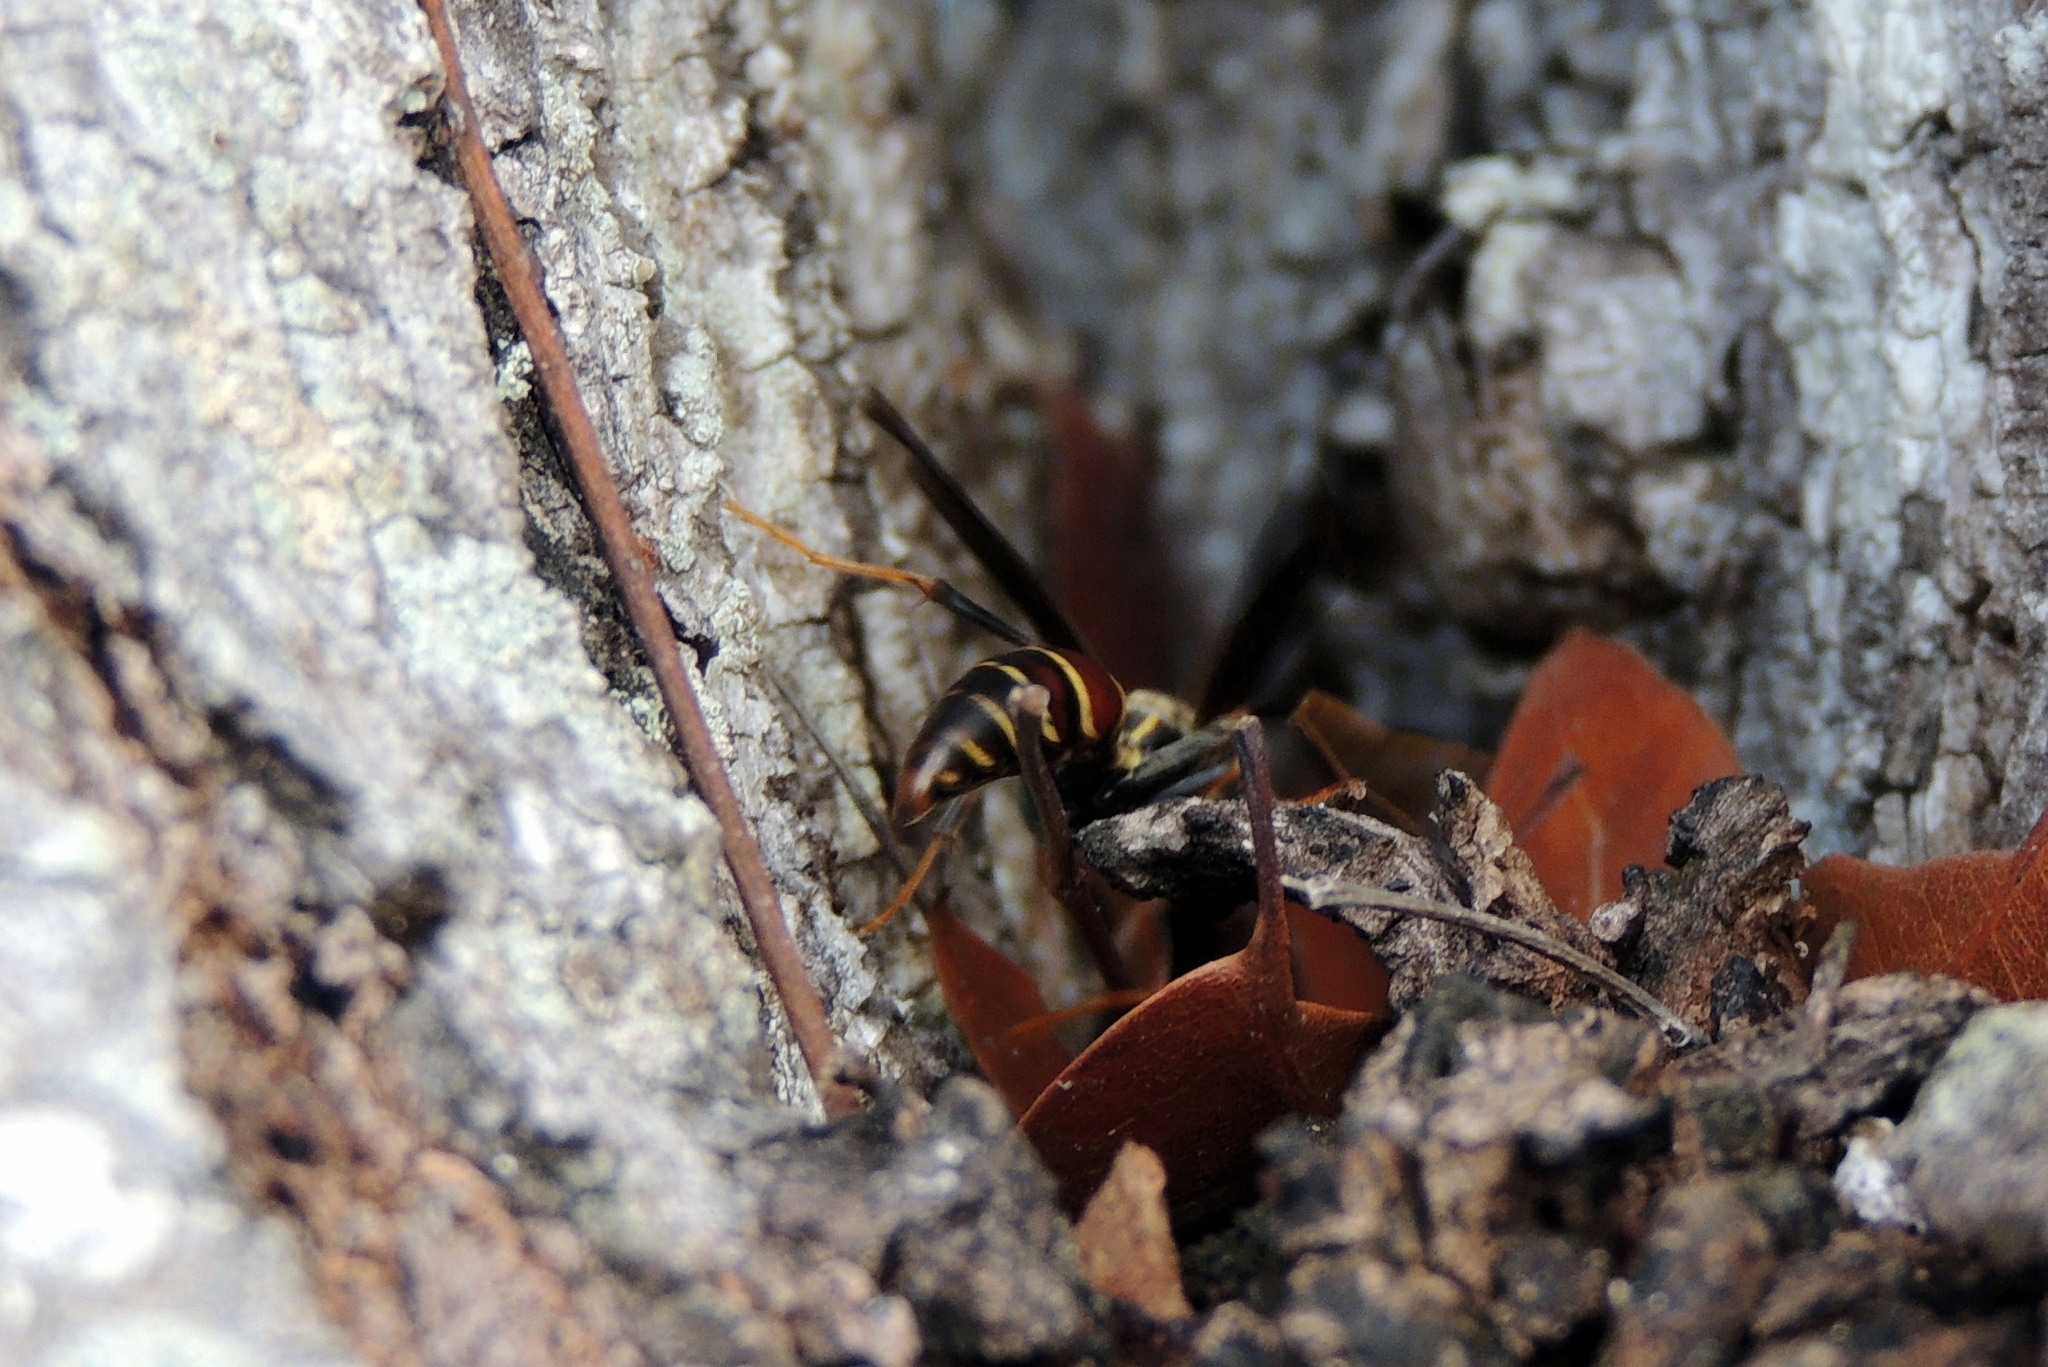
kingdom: Animalia
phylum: Arthropoda
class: Insecta
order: Hymenoptera
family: Eumenidae
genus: Polistes
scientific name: Polistes bahamensis
